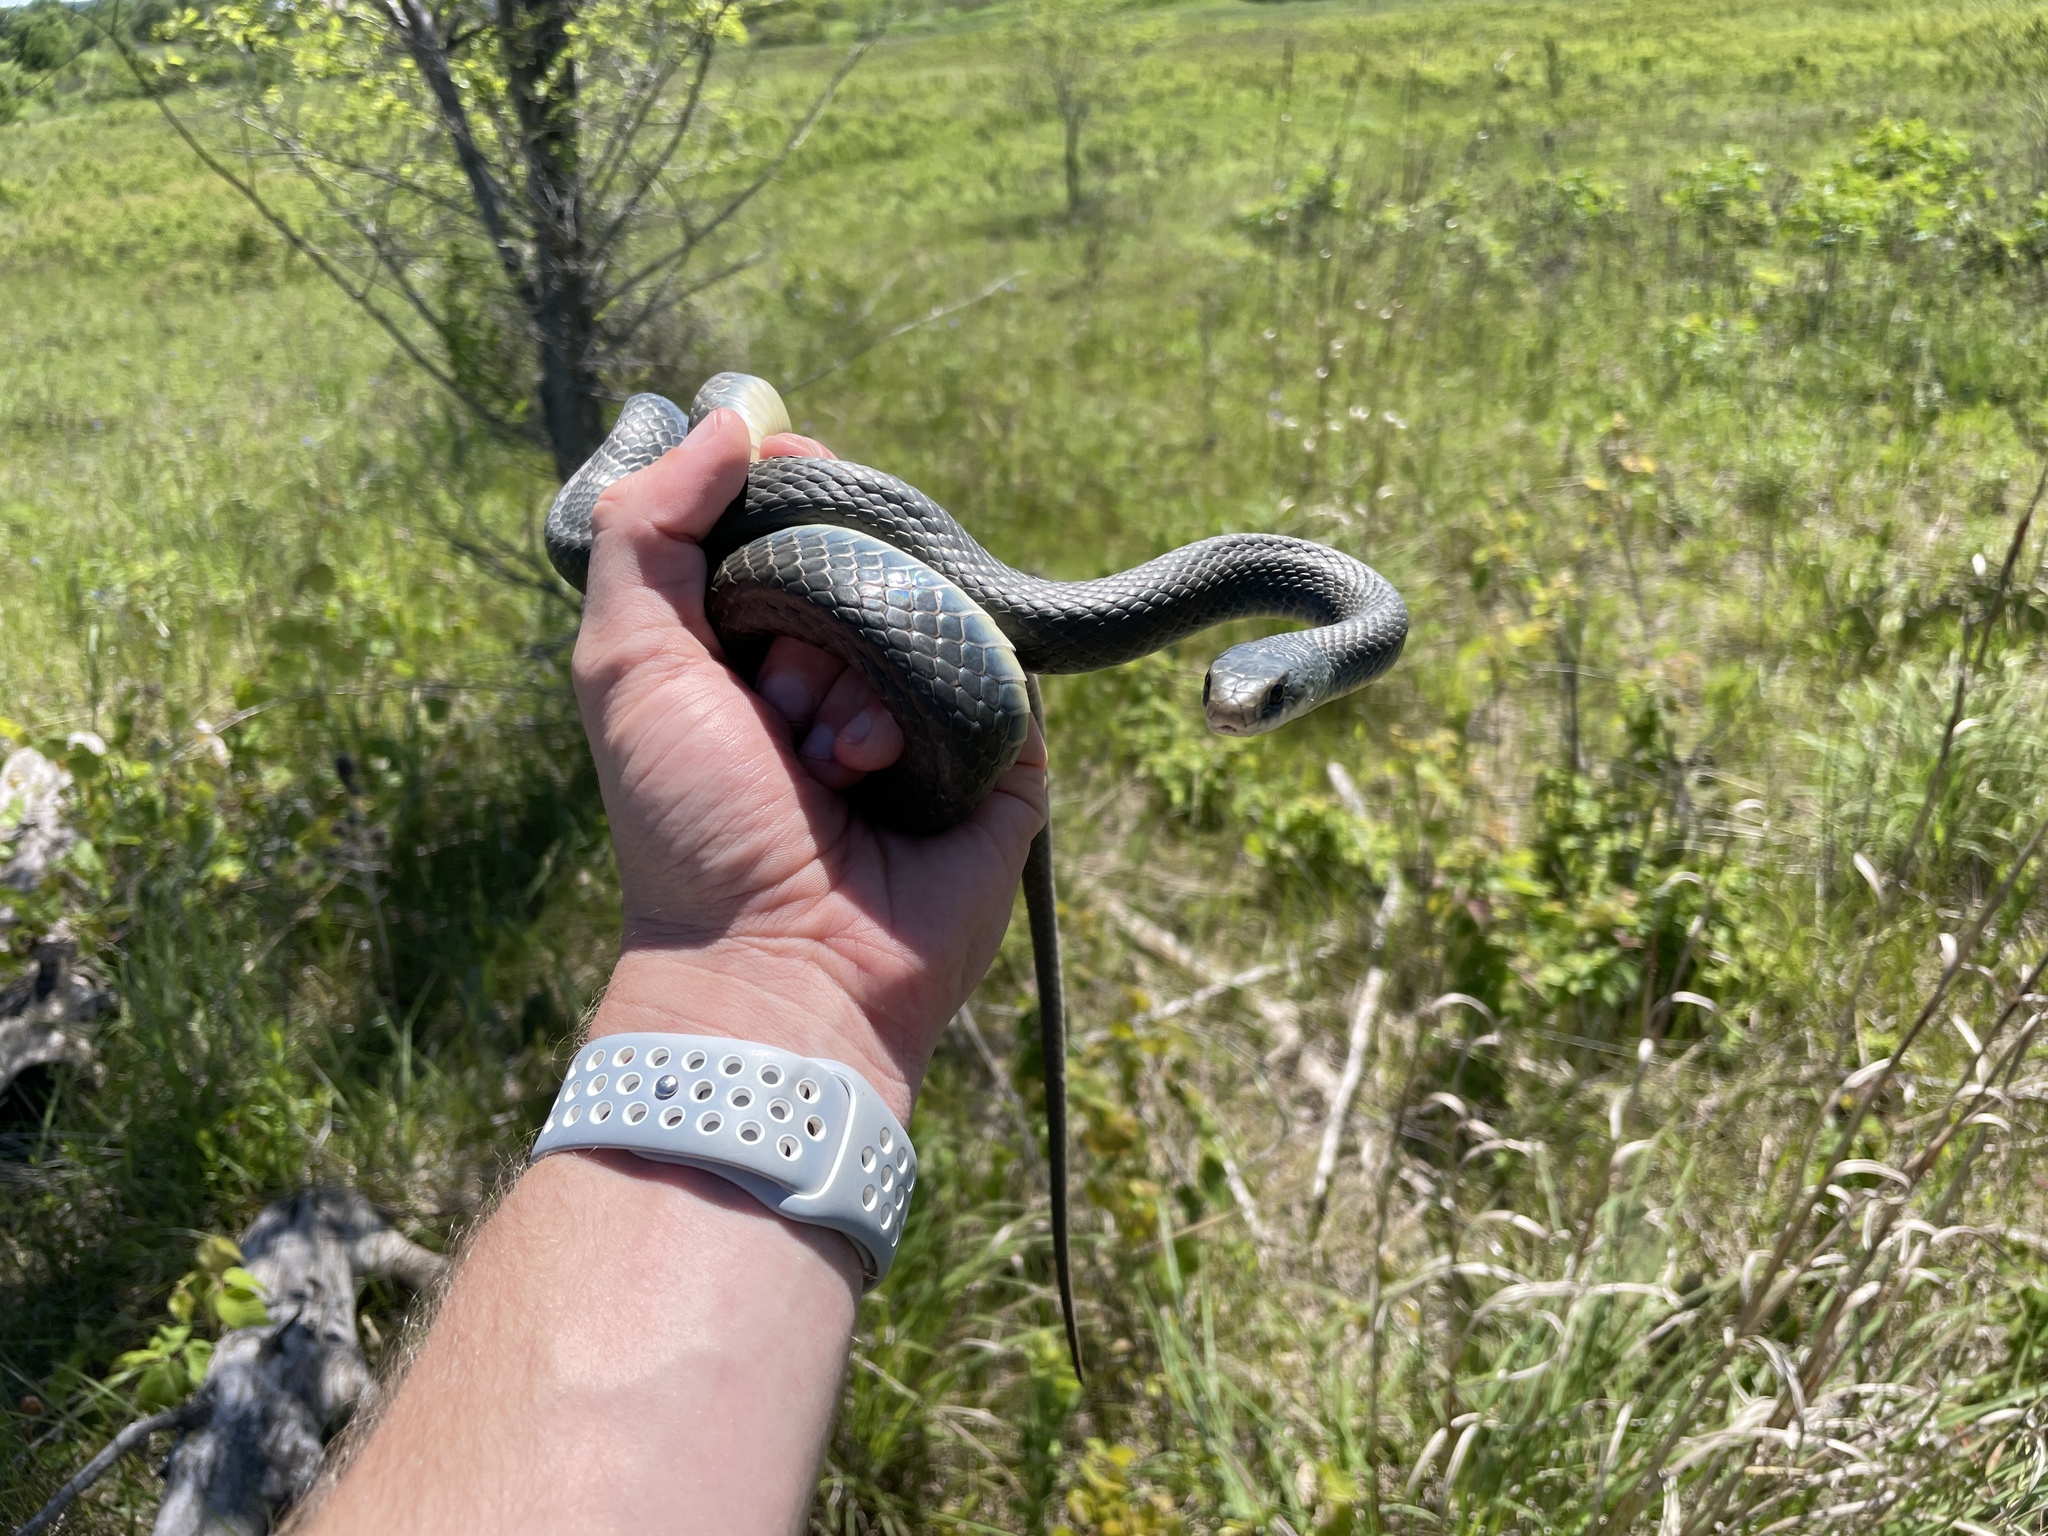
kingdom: Animalia
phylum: Chordata
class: Squamata
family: Colubridae
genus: Coluber
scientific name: Coluber constrictor
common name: Eastern racer
